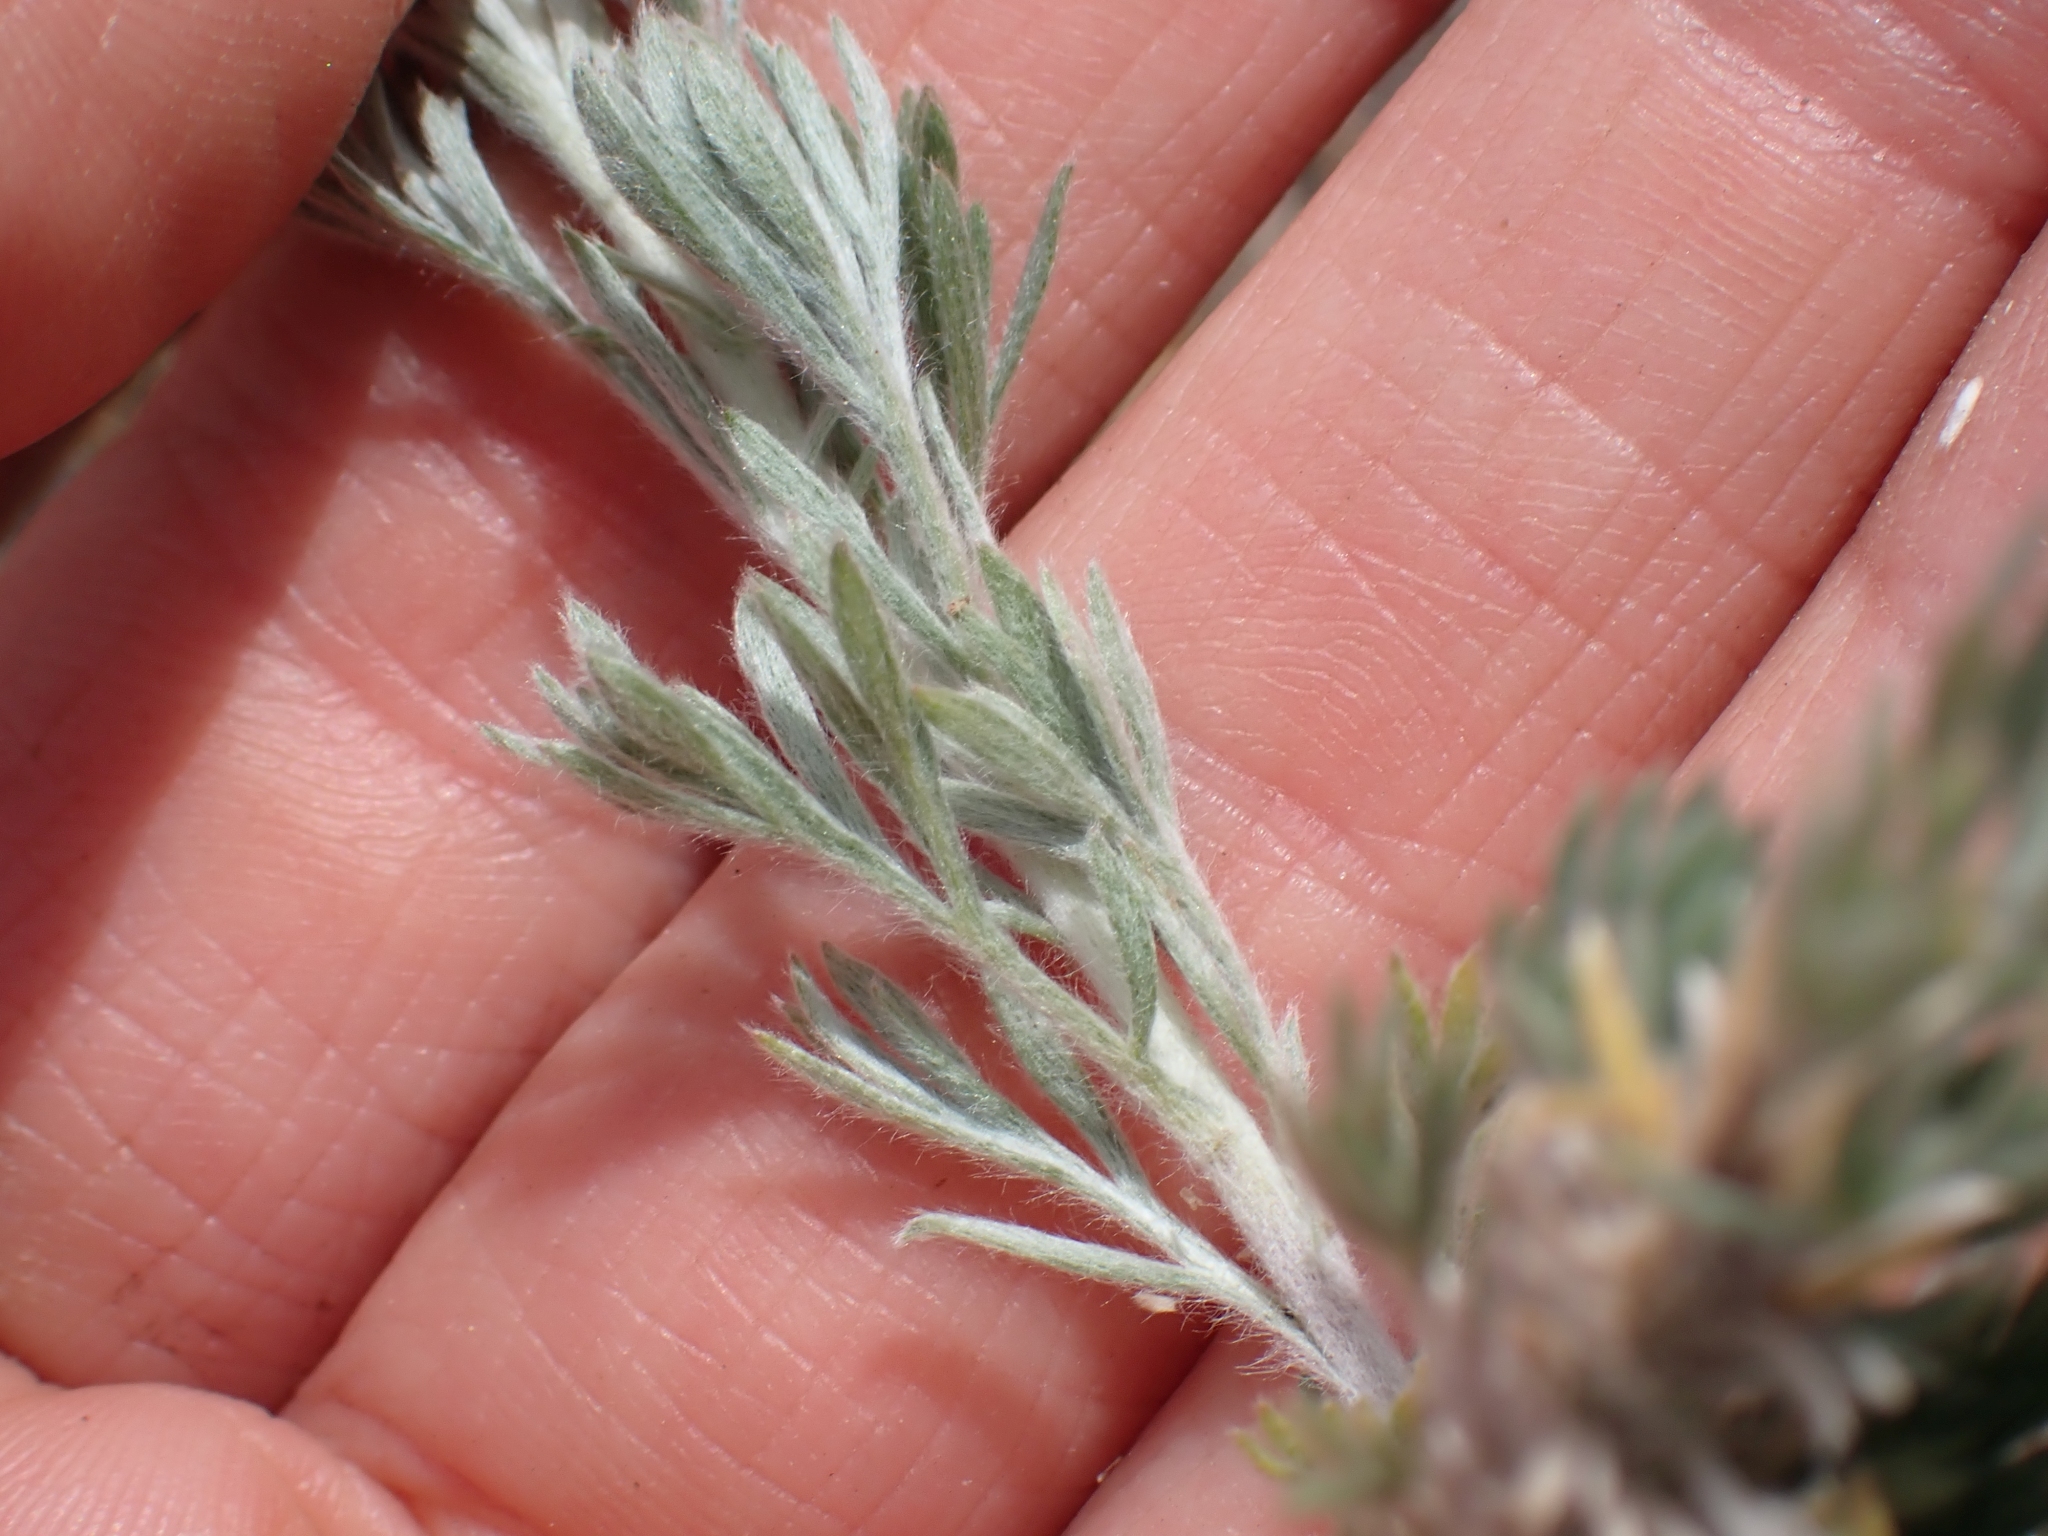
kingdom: Plantae
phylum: Tracheophyta
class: Magnoliopsida
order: Asterales
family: Asteraceae
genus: Artemisia
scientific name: Artemisia frigida
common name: Prairie sagewort
